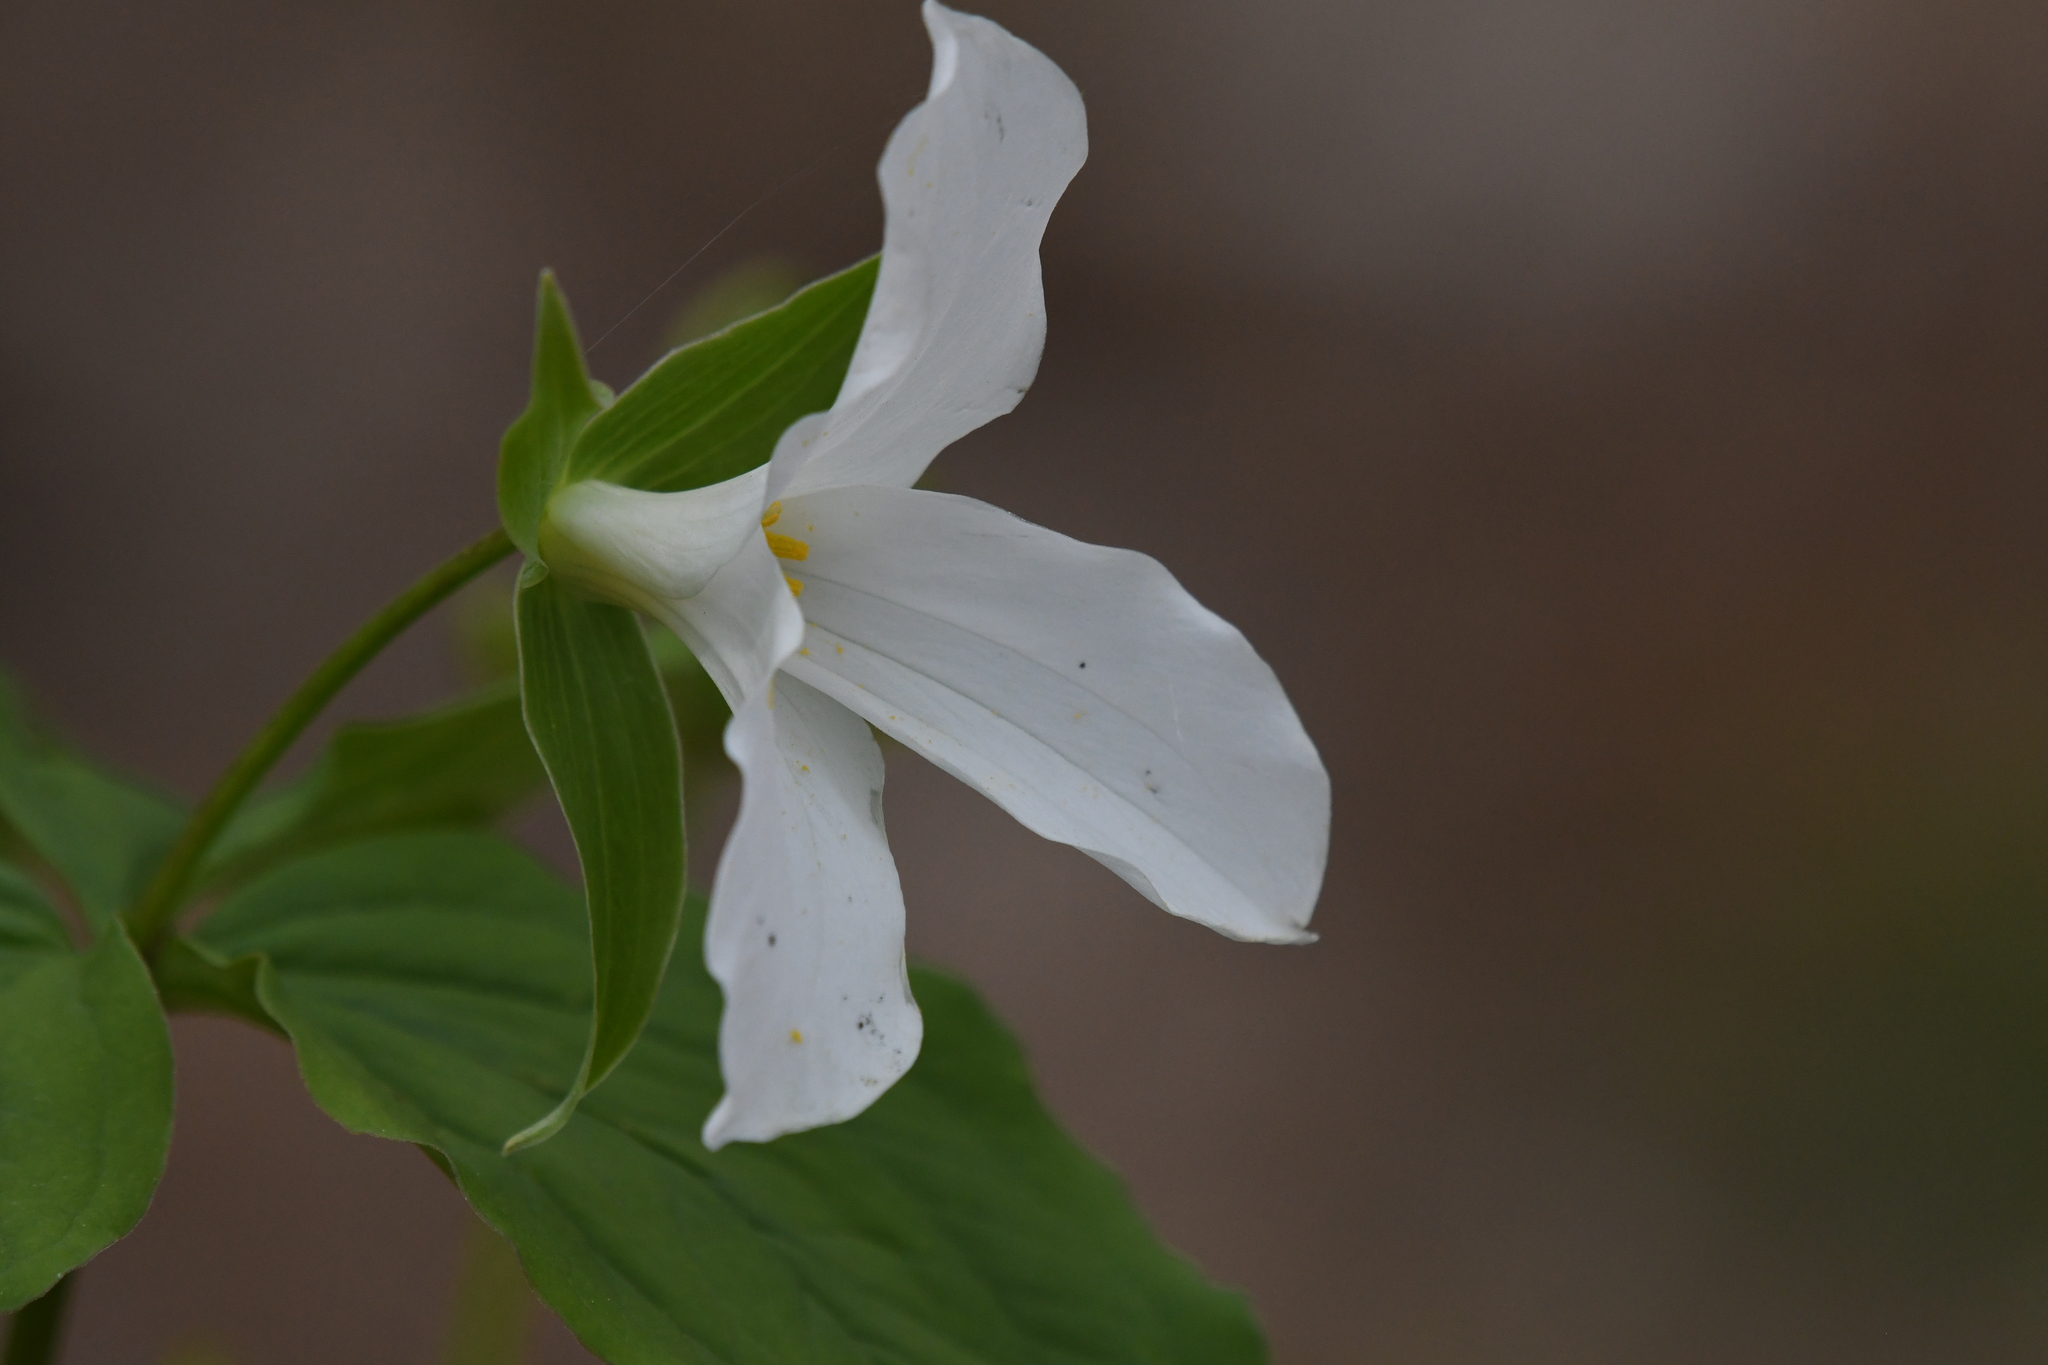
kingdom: Plantae
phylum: Tracheophyta
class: Liliopsida
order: Liliales
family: Melanthiaceae
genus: Trillium
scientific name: Trillium grandiflorum
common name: Great white trillium
